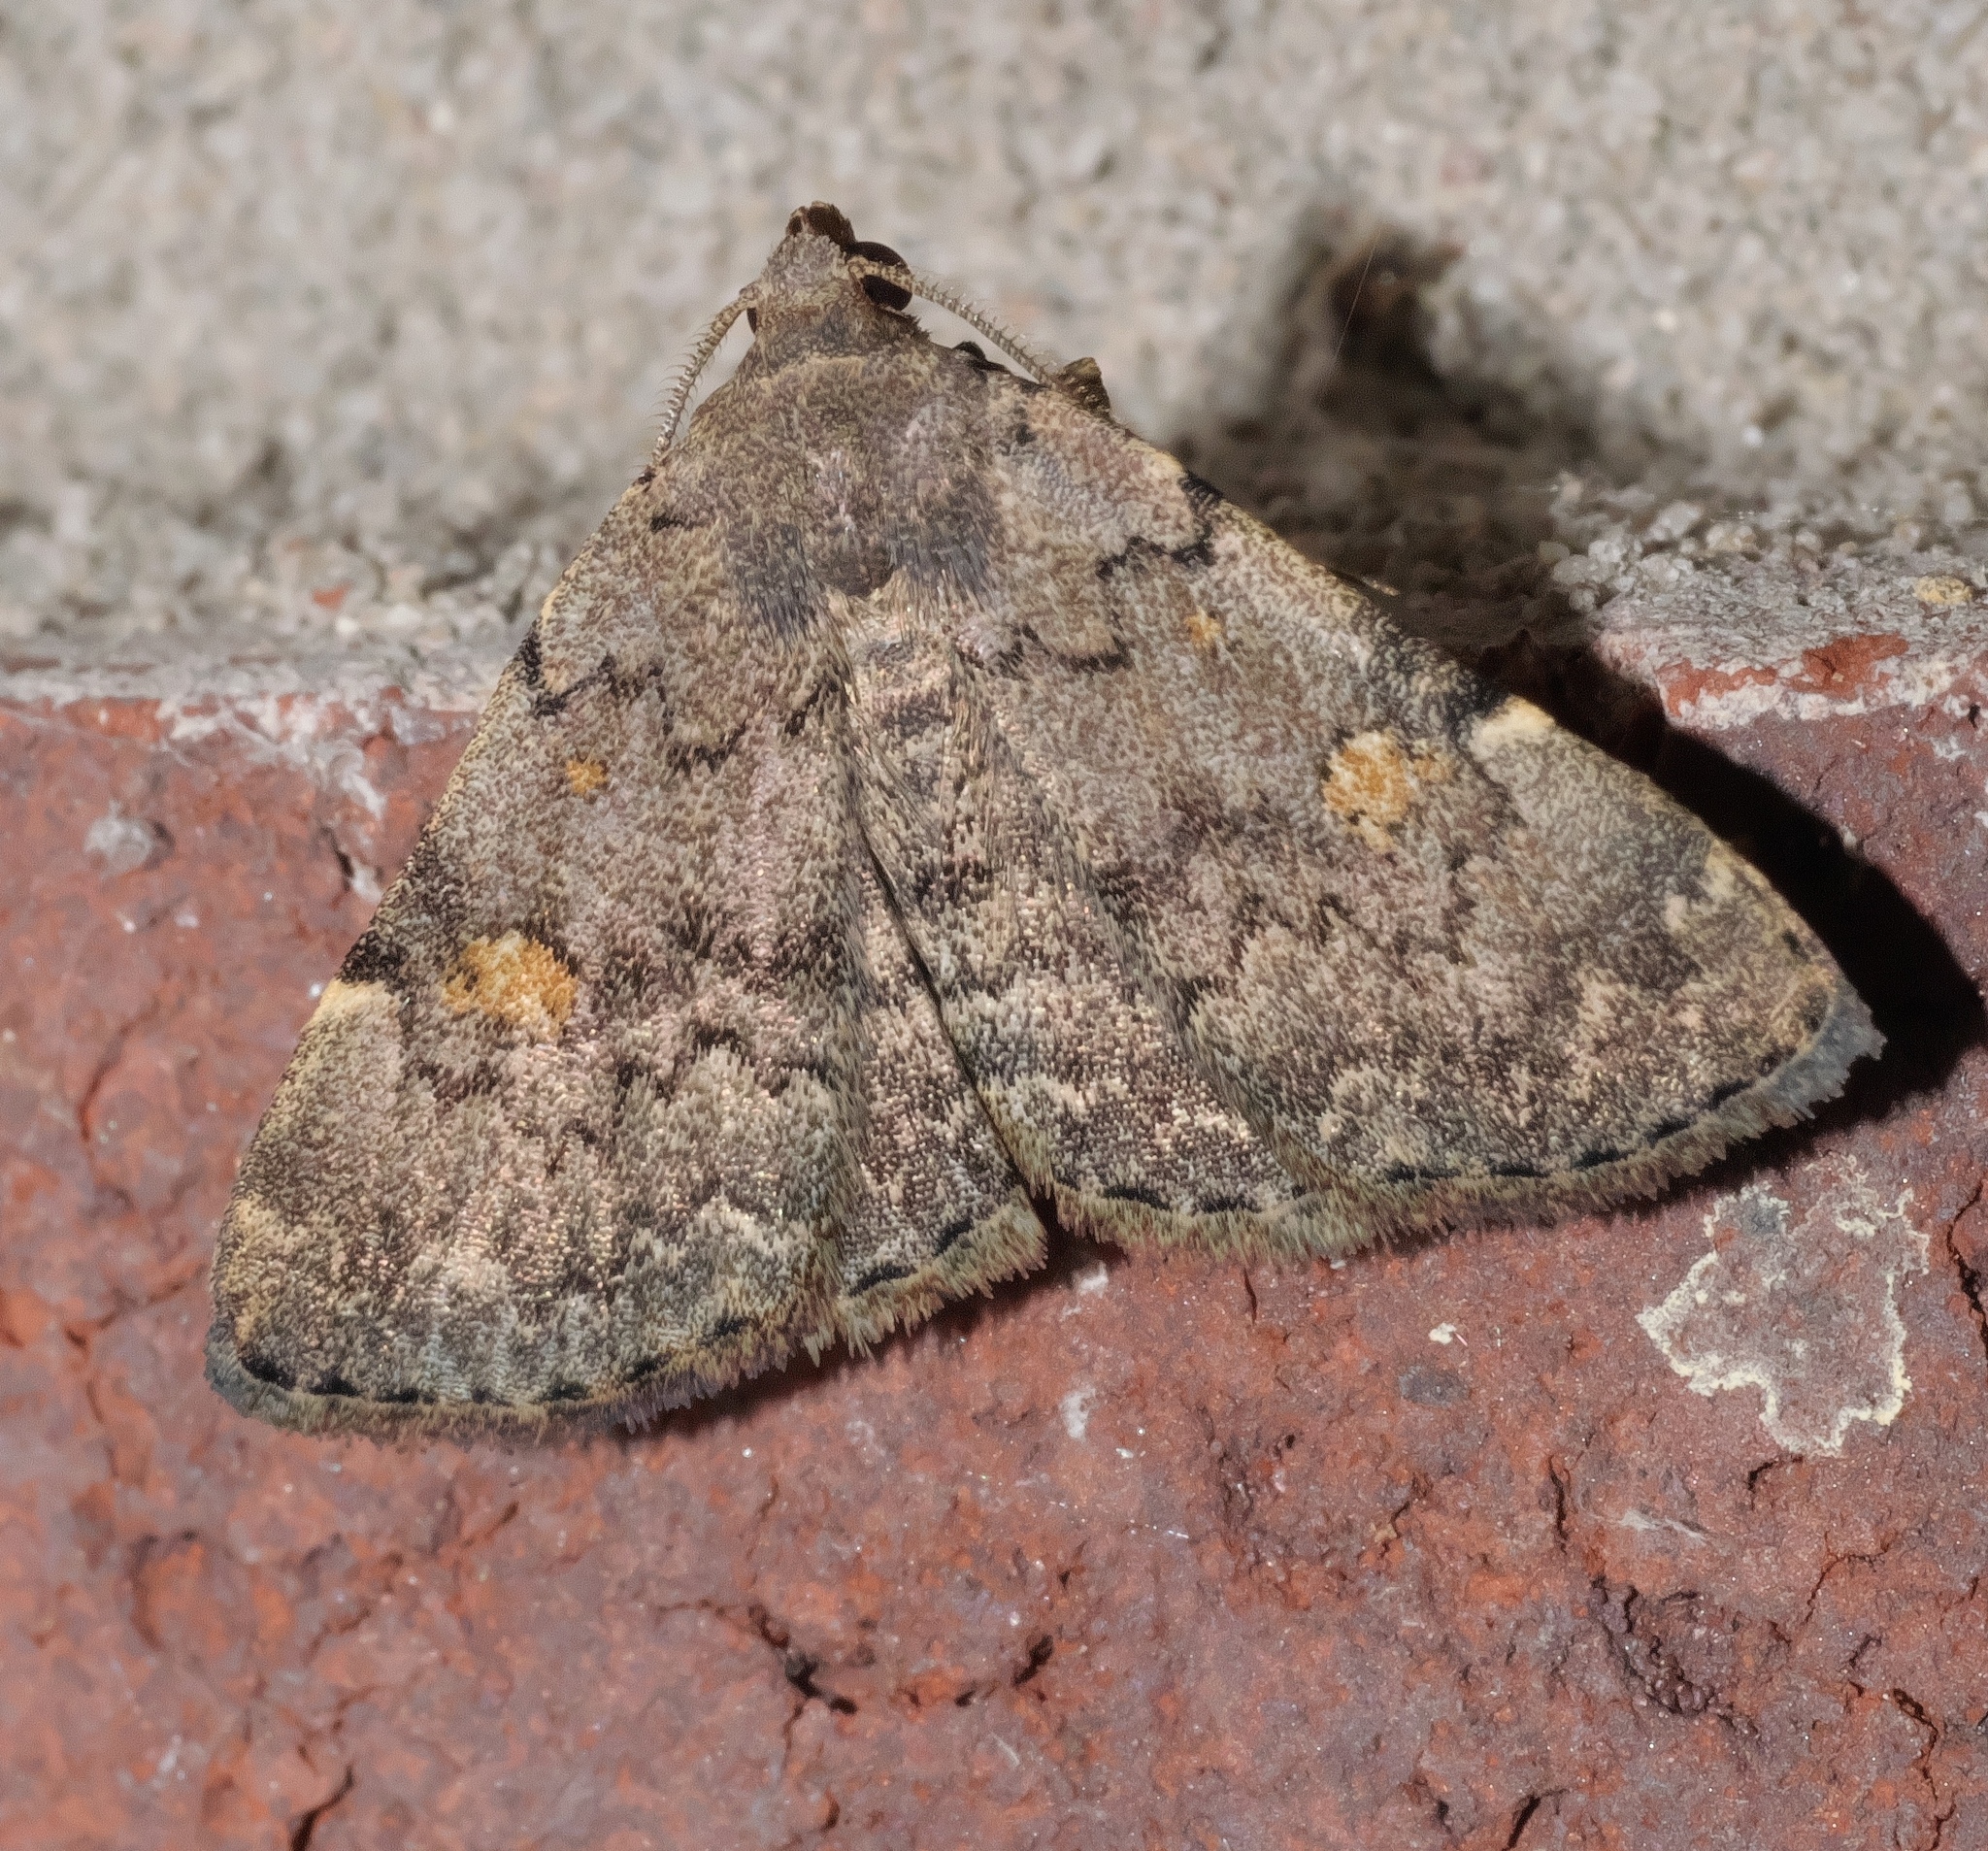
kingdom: Animalia
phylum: Arthropoda
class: Insecta
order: Lepidoptera
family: Erebidae
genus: Idia
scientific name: Idia aemula
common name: Common idia moth
